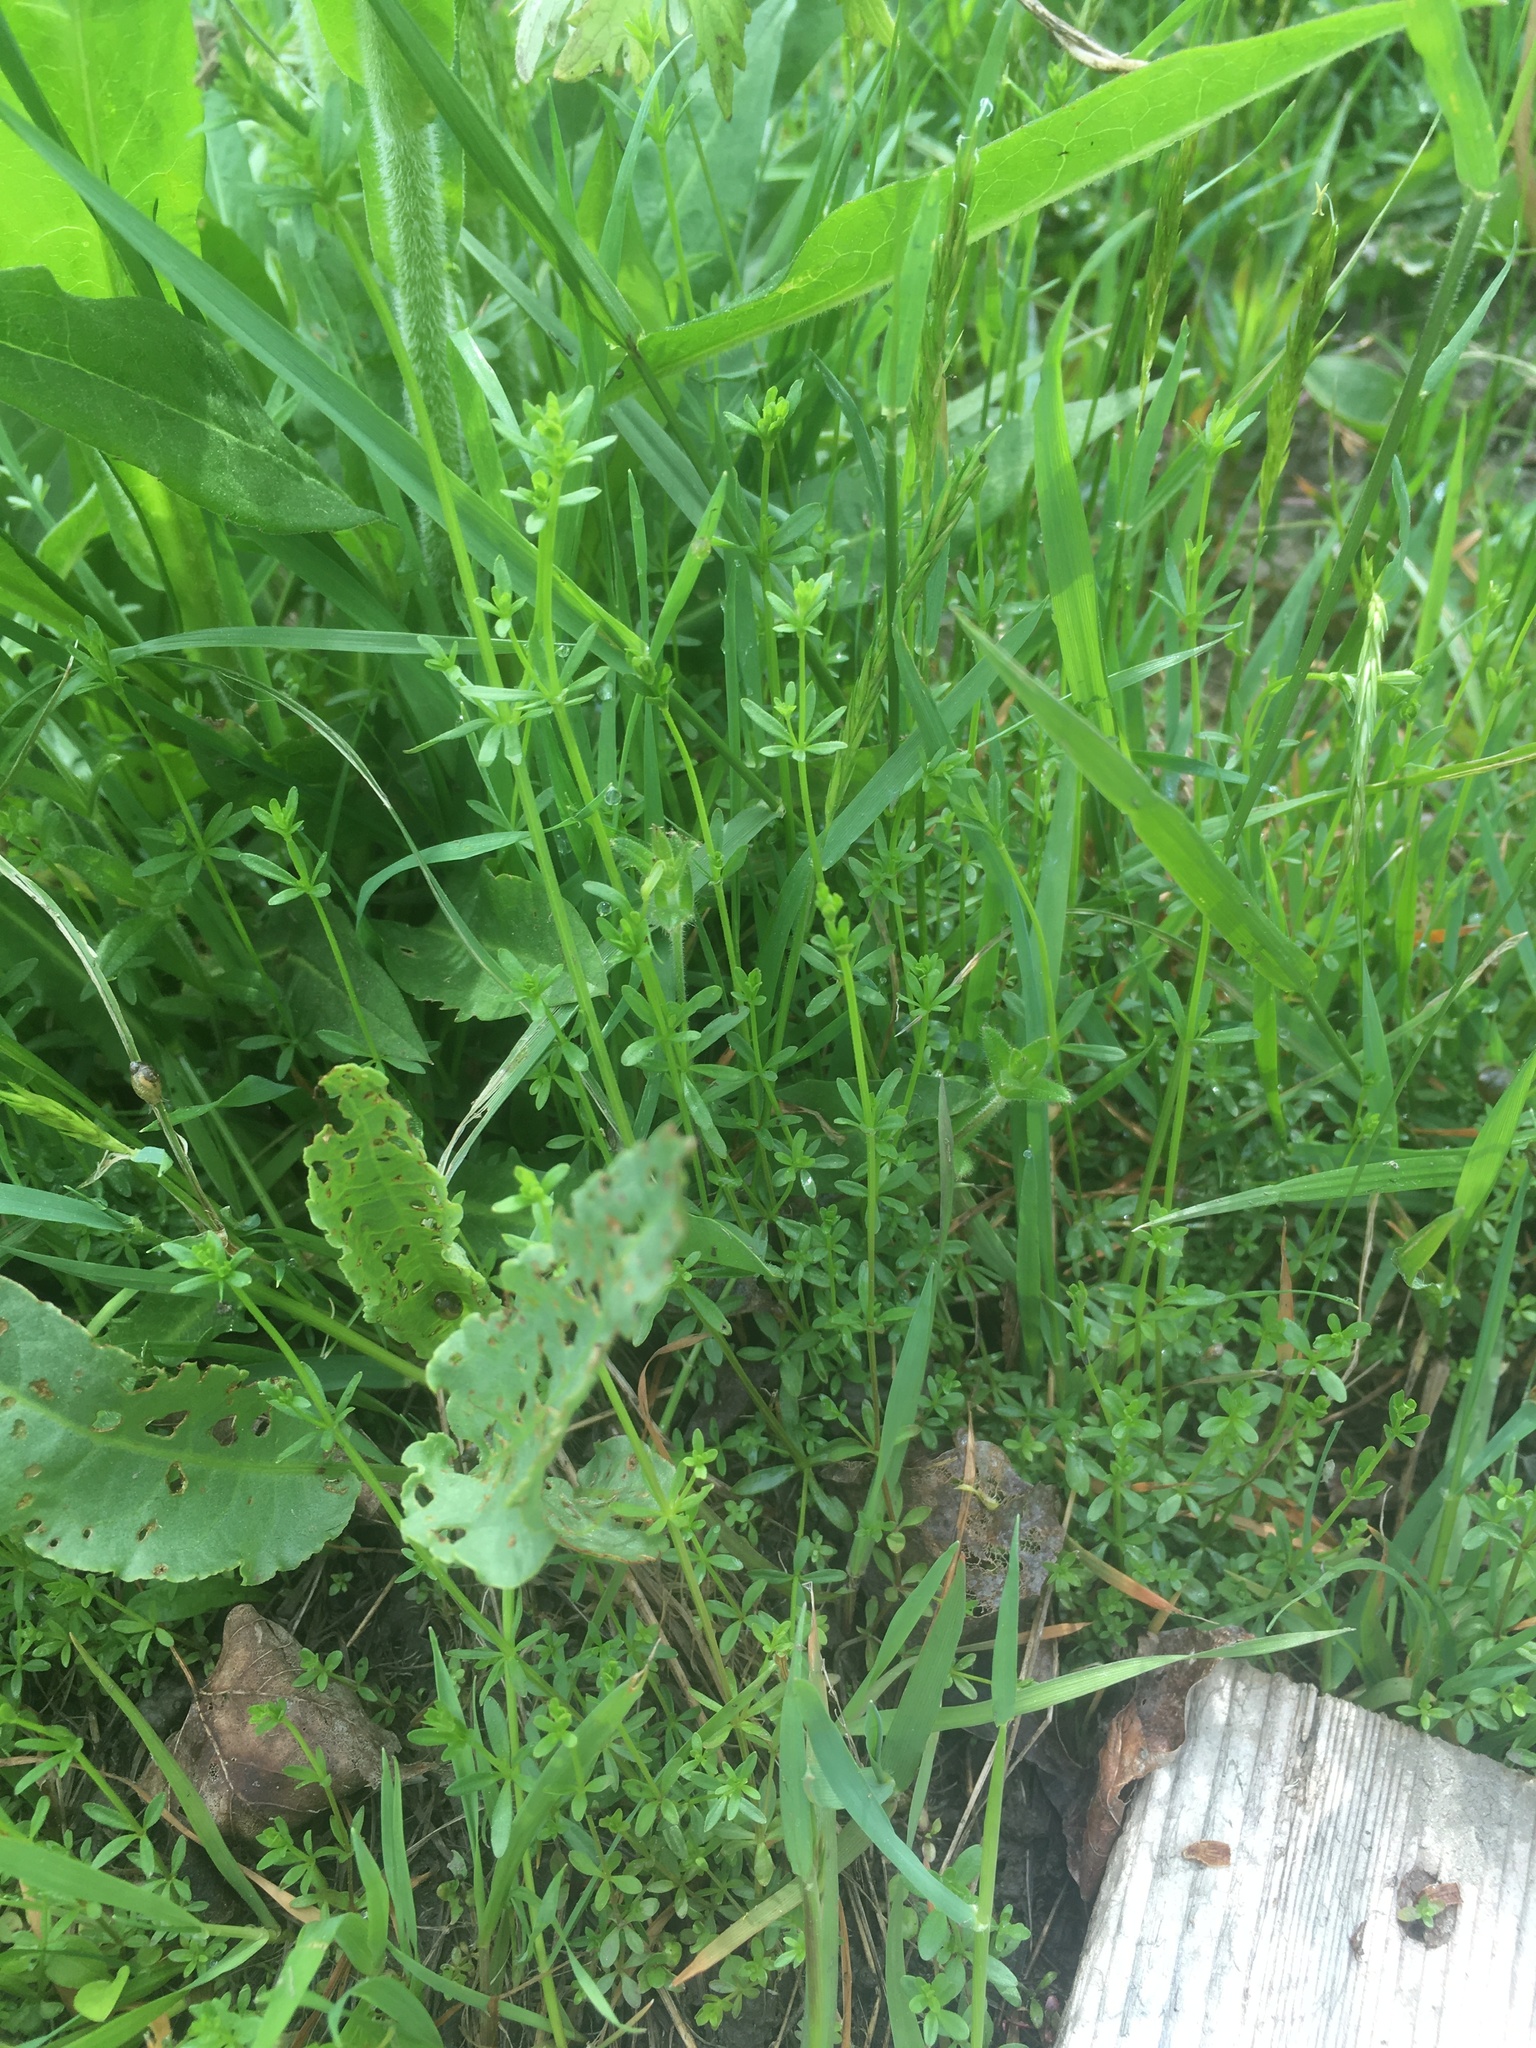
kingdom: Plantae
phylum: Tracheophyta
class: Magnoliopsida
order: Gentianales
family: Rubiaceae
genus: Galium
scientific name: Galium palustre
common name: Common marsh-bedstraw
